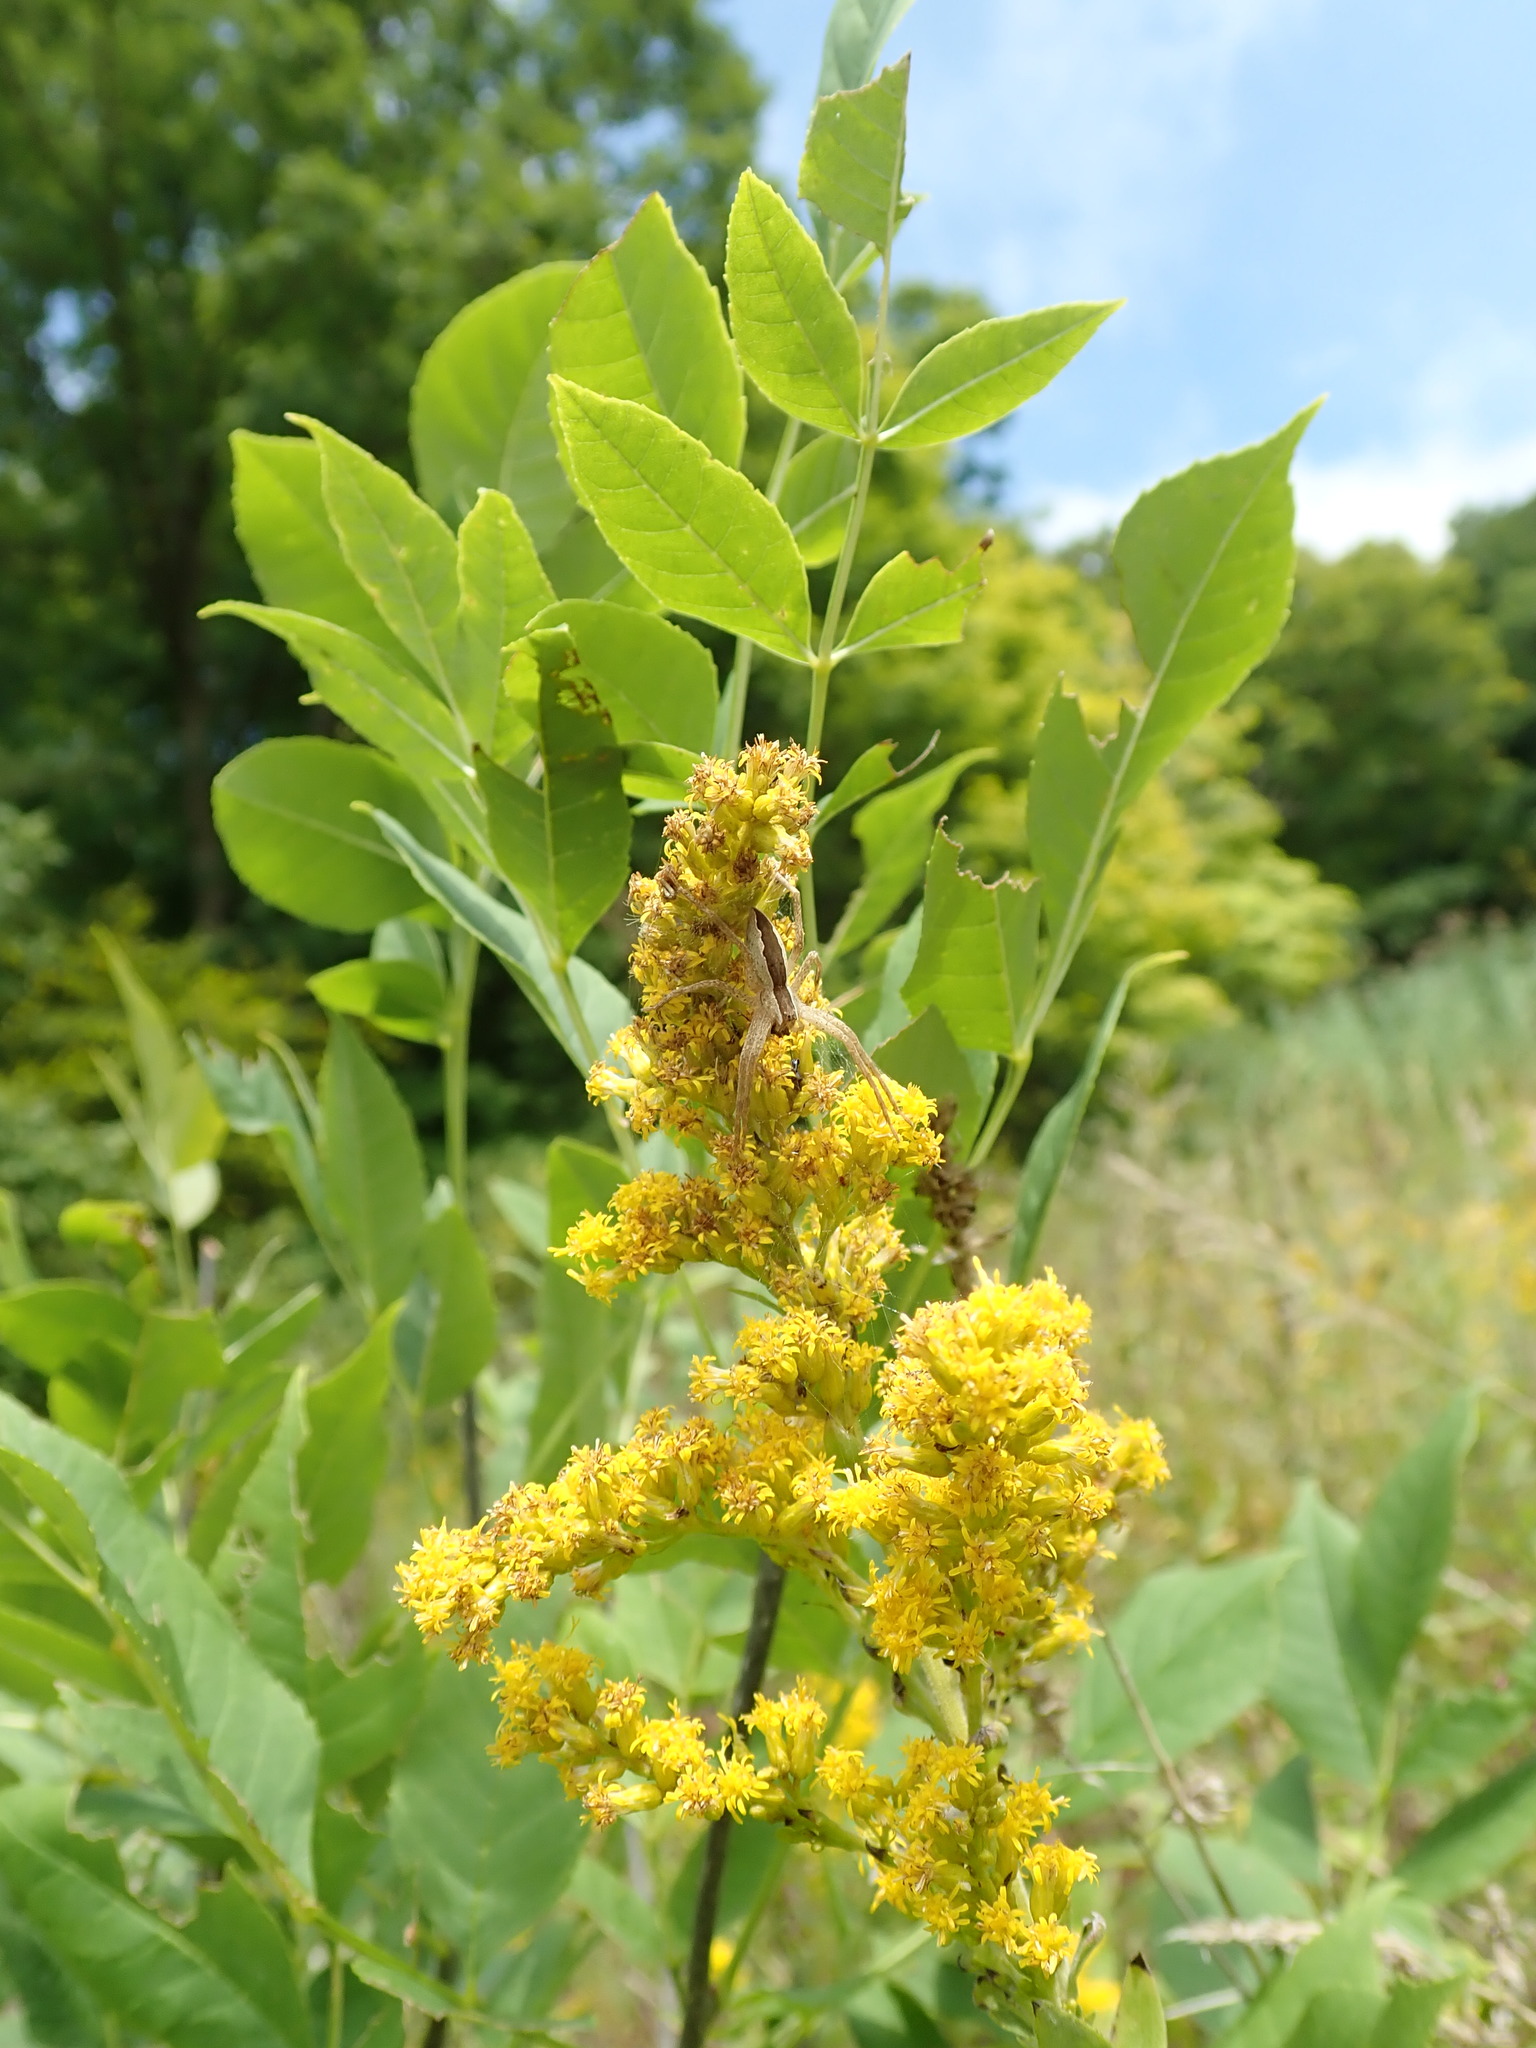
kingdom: Animalia
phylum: Arthropoda
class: Arachnida
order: Araneae
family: Pisauridae
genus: Pisaurina
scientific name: Pisaurina mira
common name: American nursery web spider
